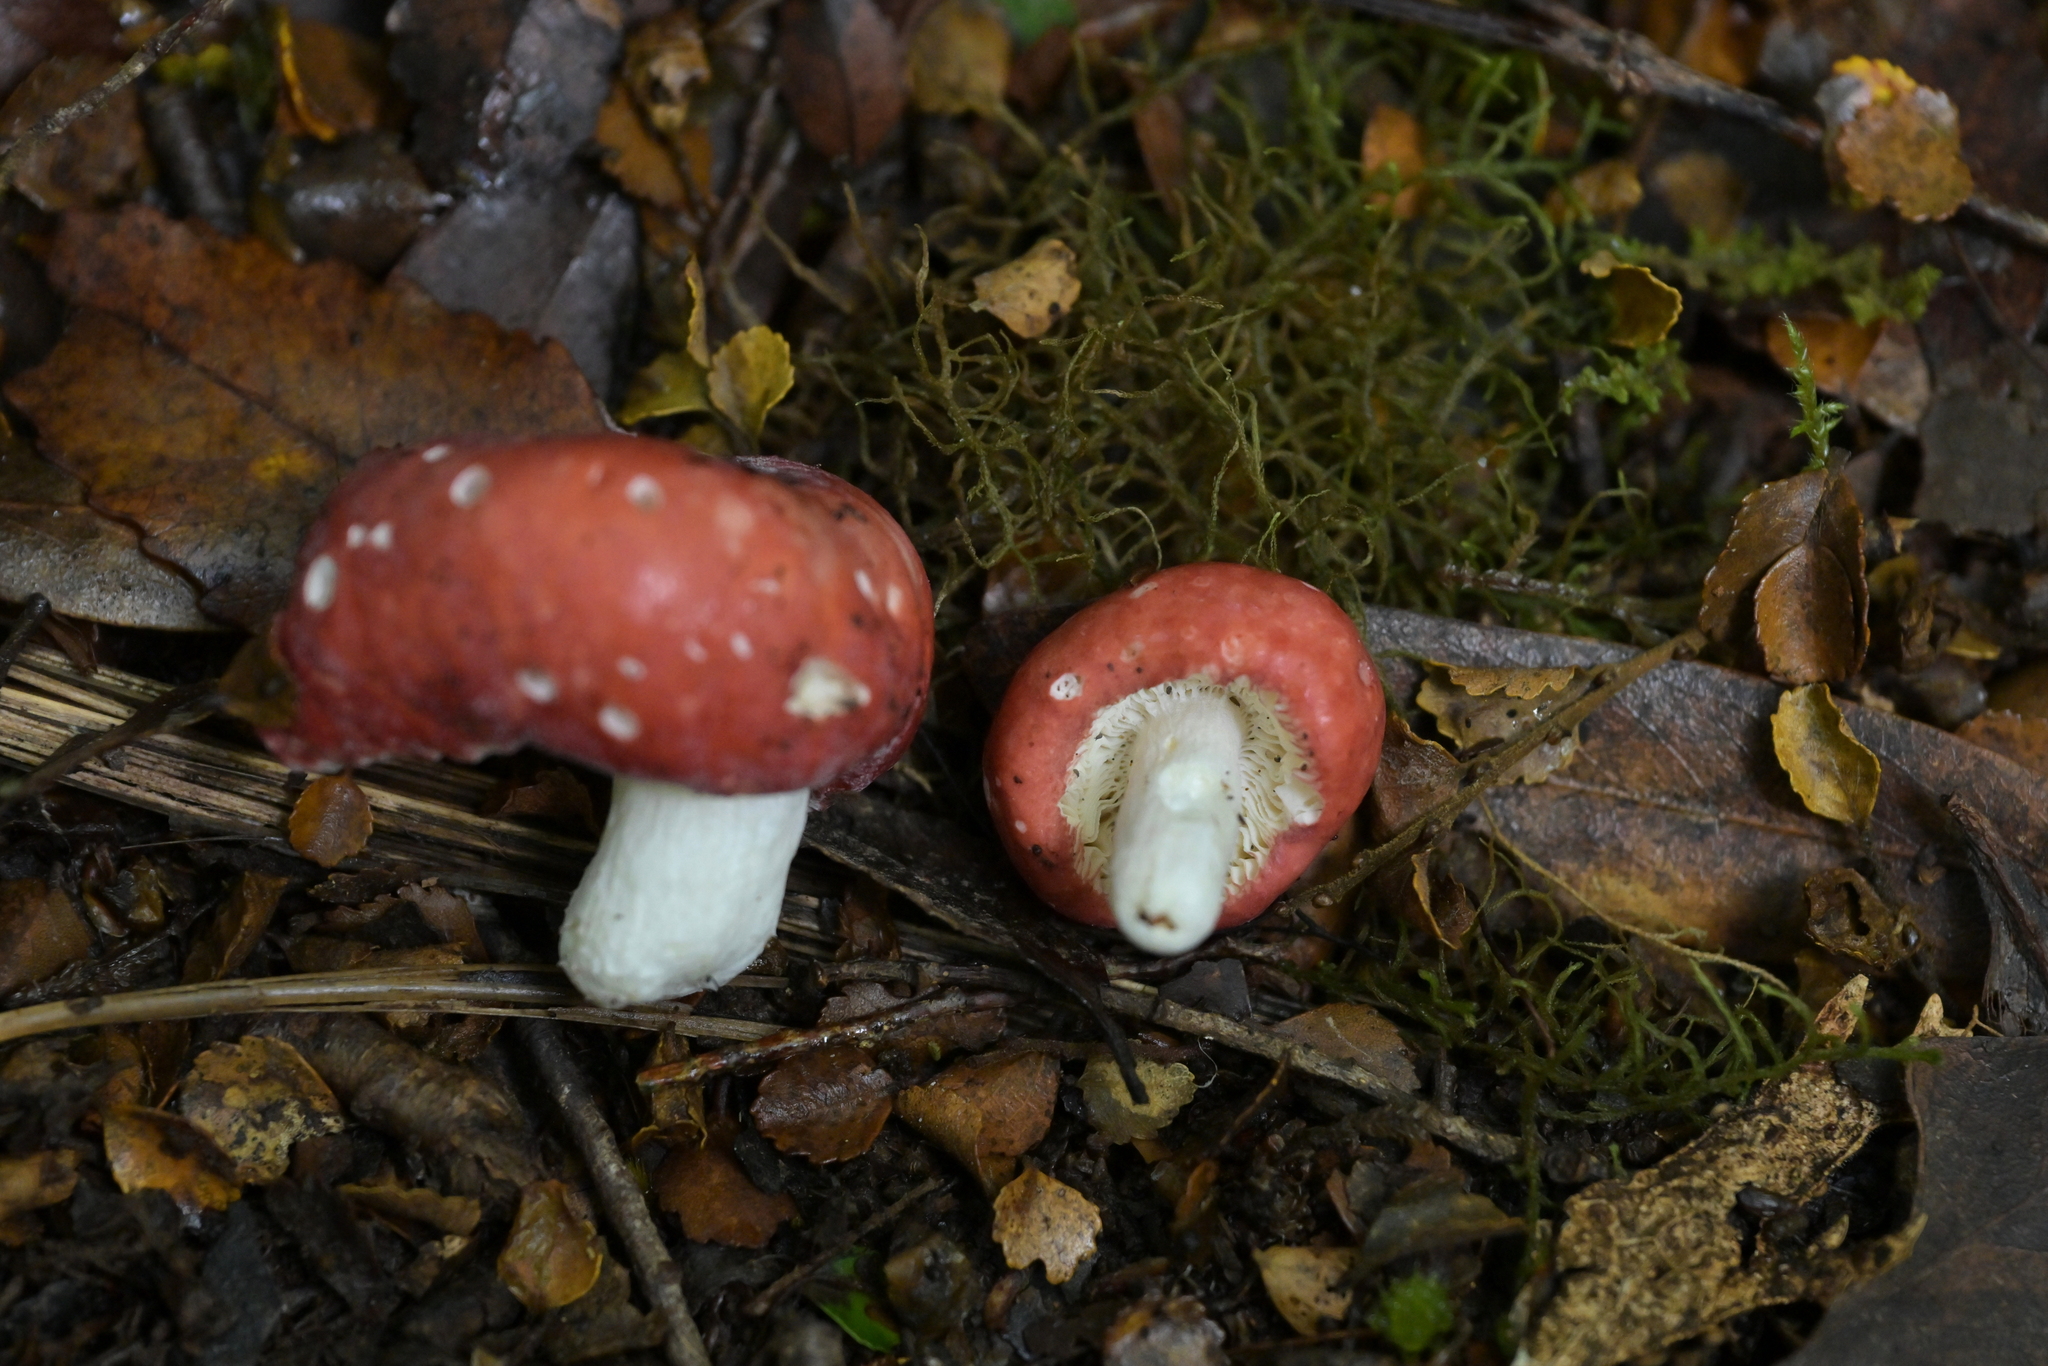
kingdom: Fungi
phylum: Basidiomycota
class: Agaricomycetes
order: Russulales
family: Russulaceae
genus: Russula
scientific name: Russula kermesina
